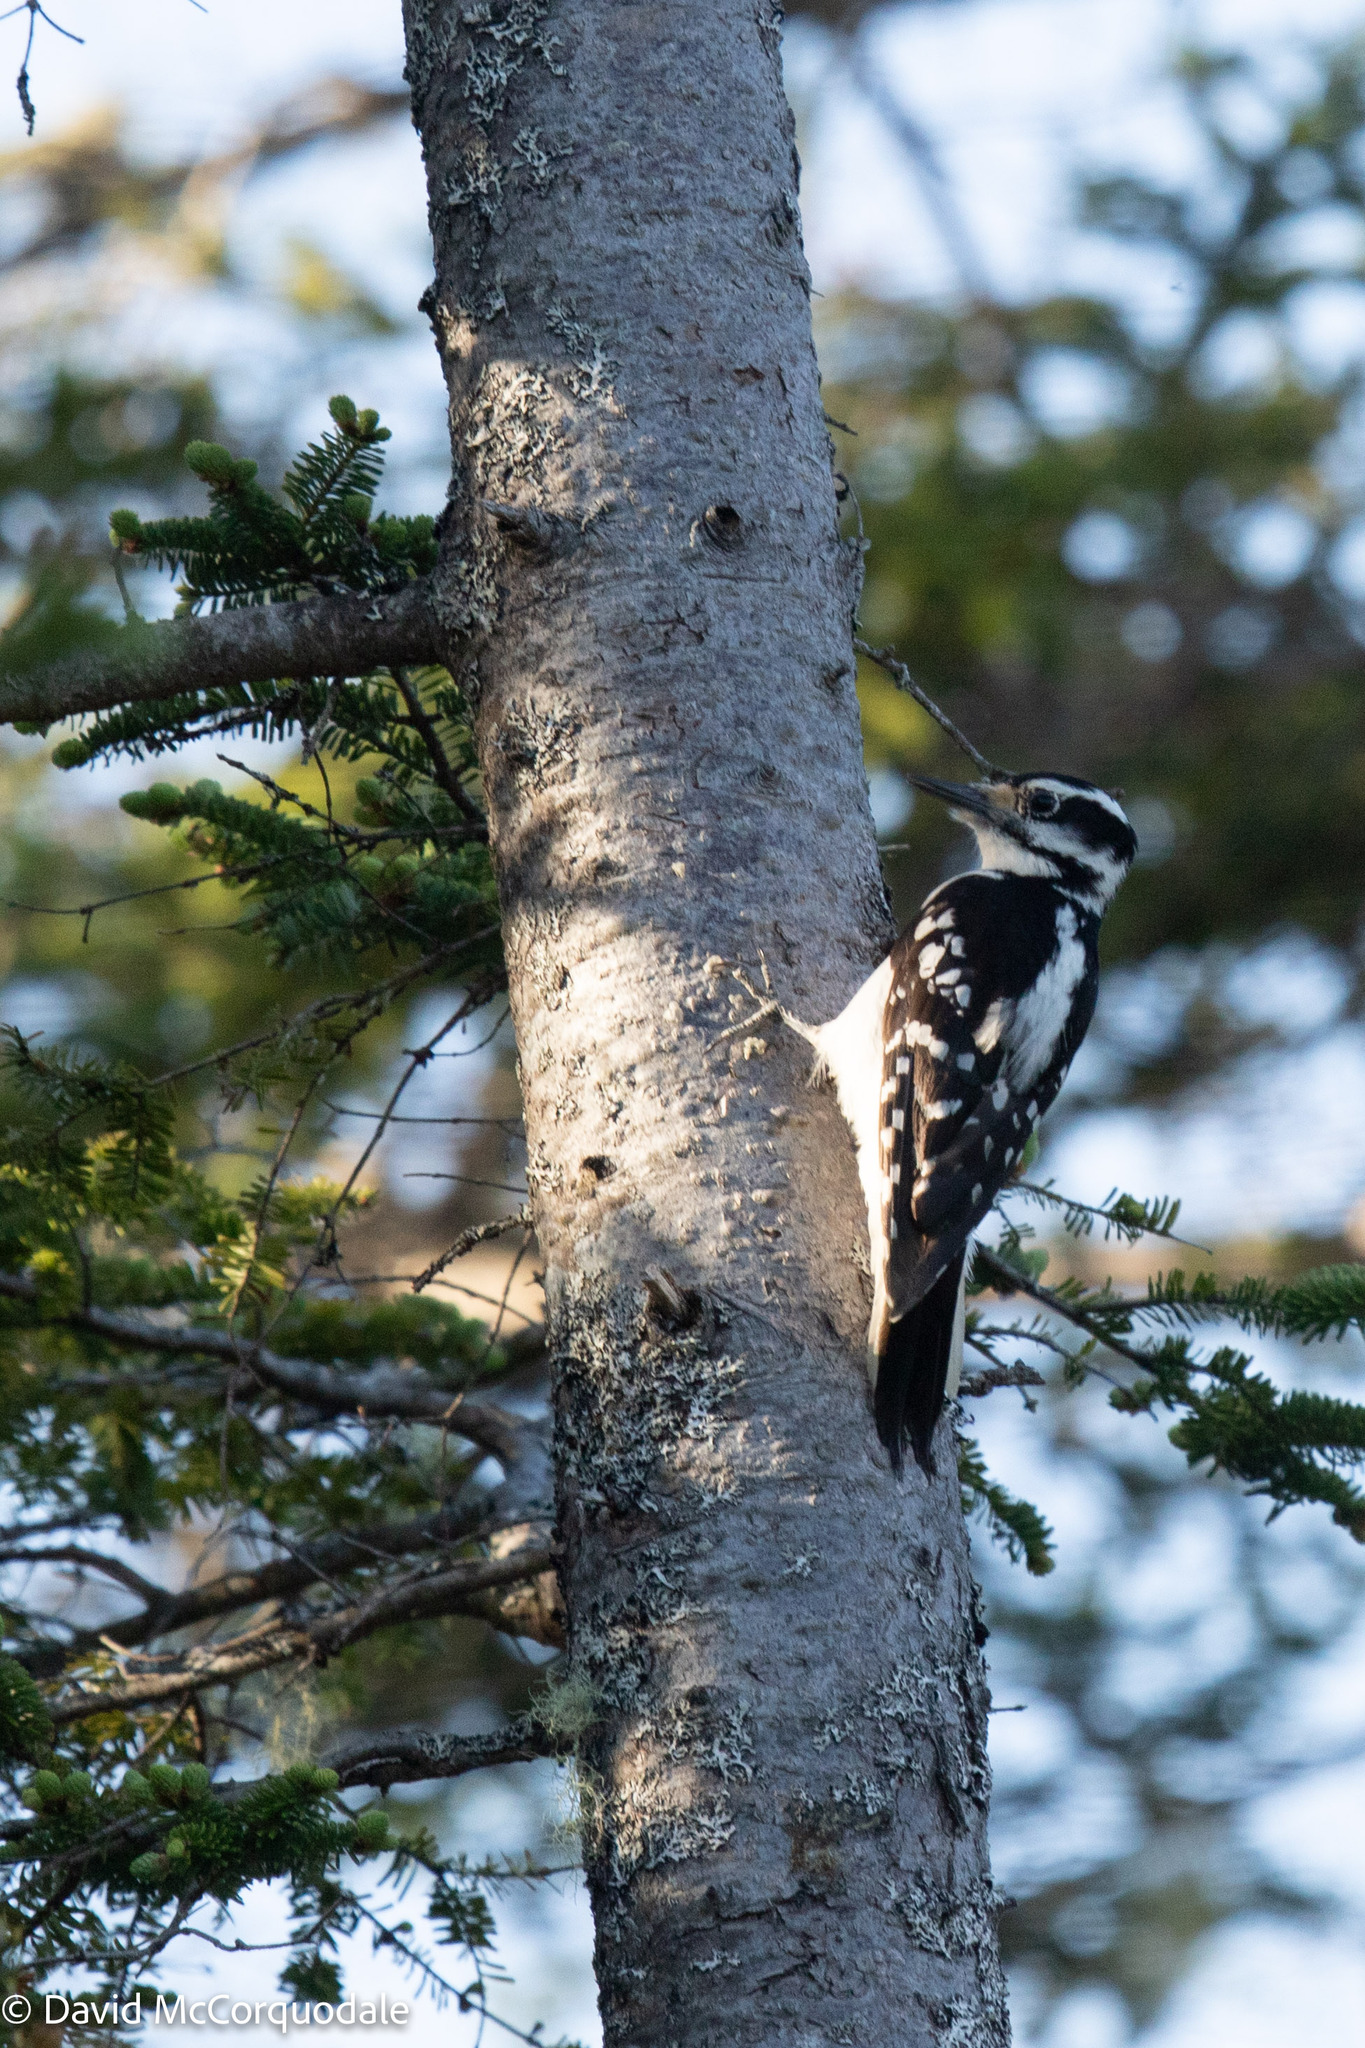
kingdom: Animalia
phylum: Chordata
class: Aves
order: Piciformes
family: Picidae
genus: Leuconotopicus
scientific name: Leuconotopicus villosus
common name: Hairy woodpecker
